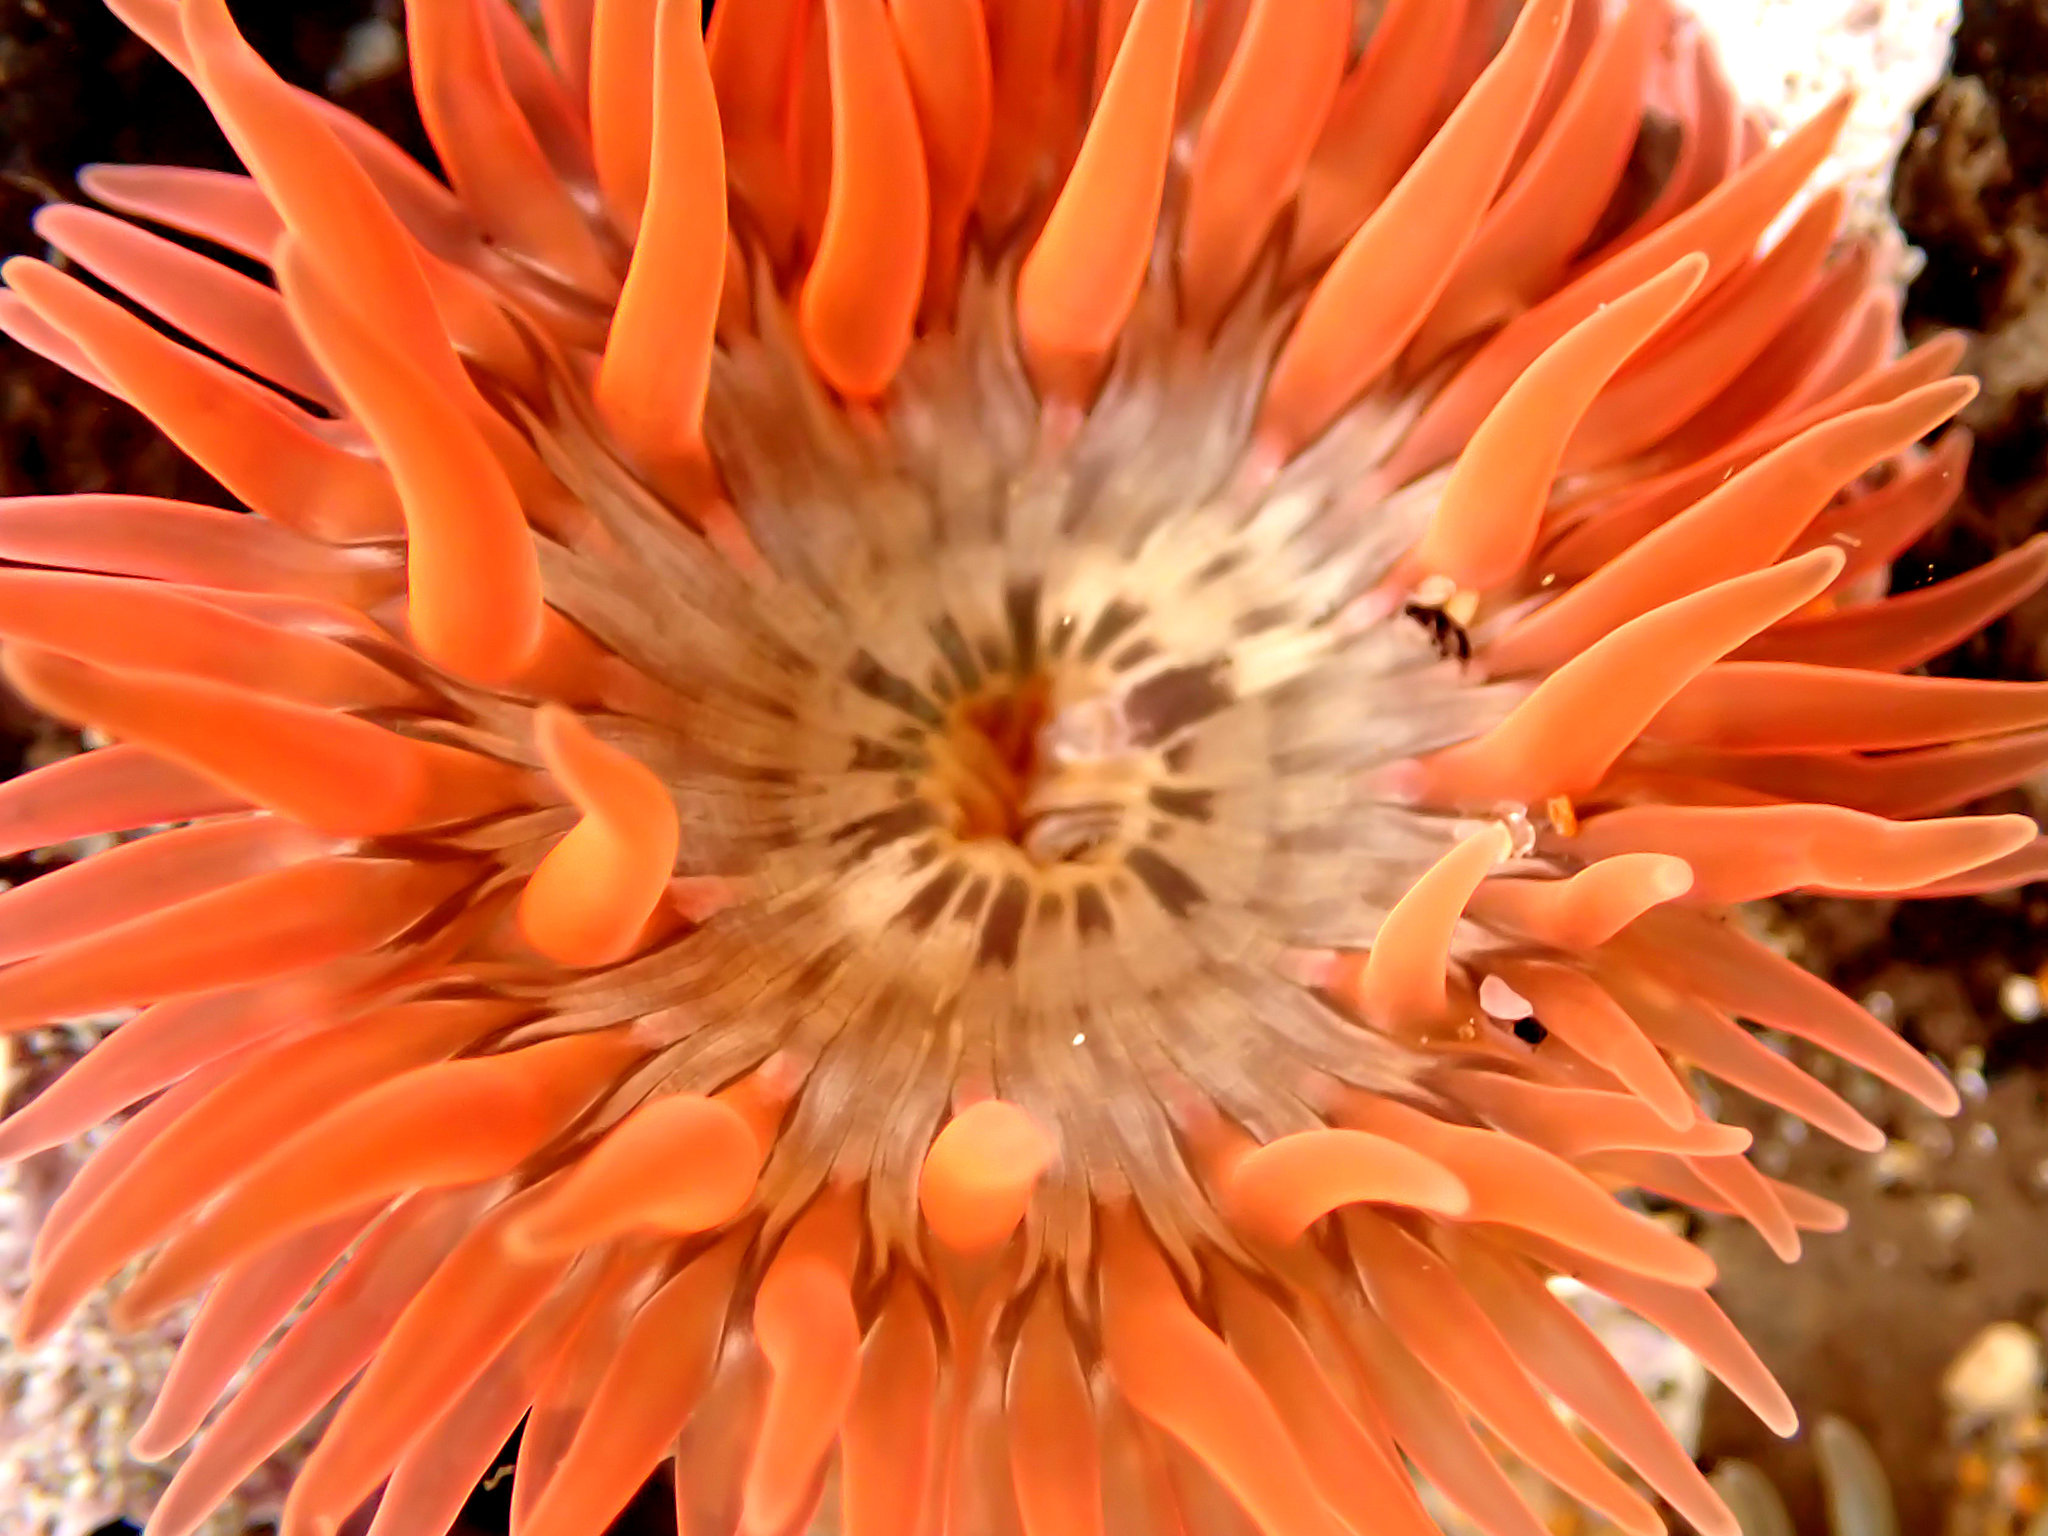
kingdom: Animalia
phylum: Cnidaria
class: Anthozoa
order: Actiniaria
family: Actiniidae
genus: Anthopleura
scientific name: Anthopleura artemisia
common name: Buried sea anemone
